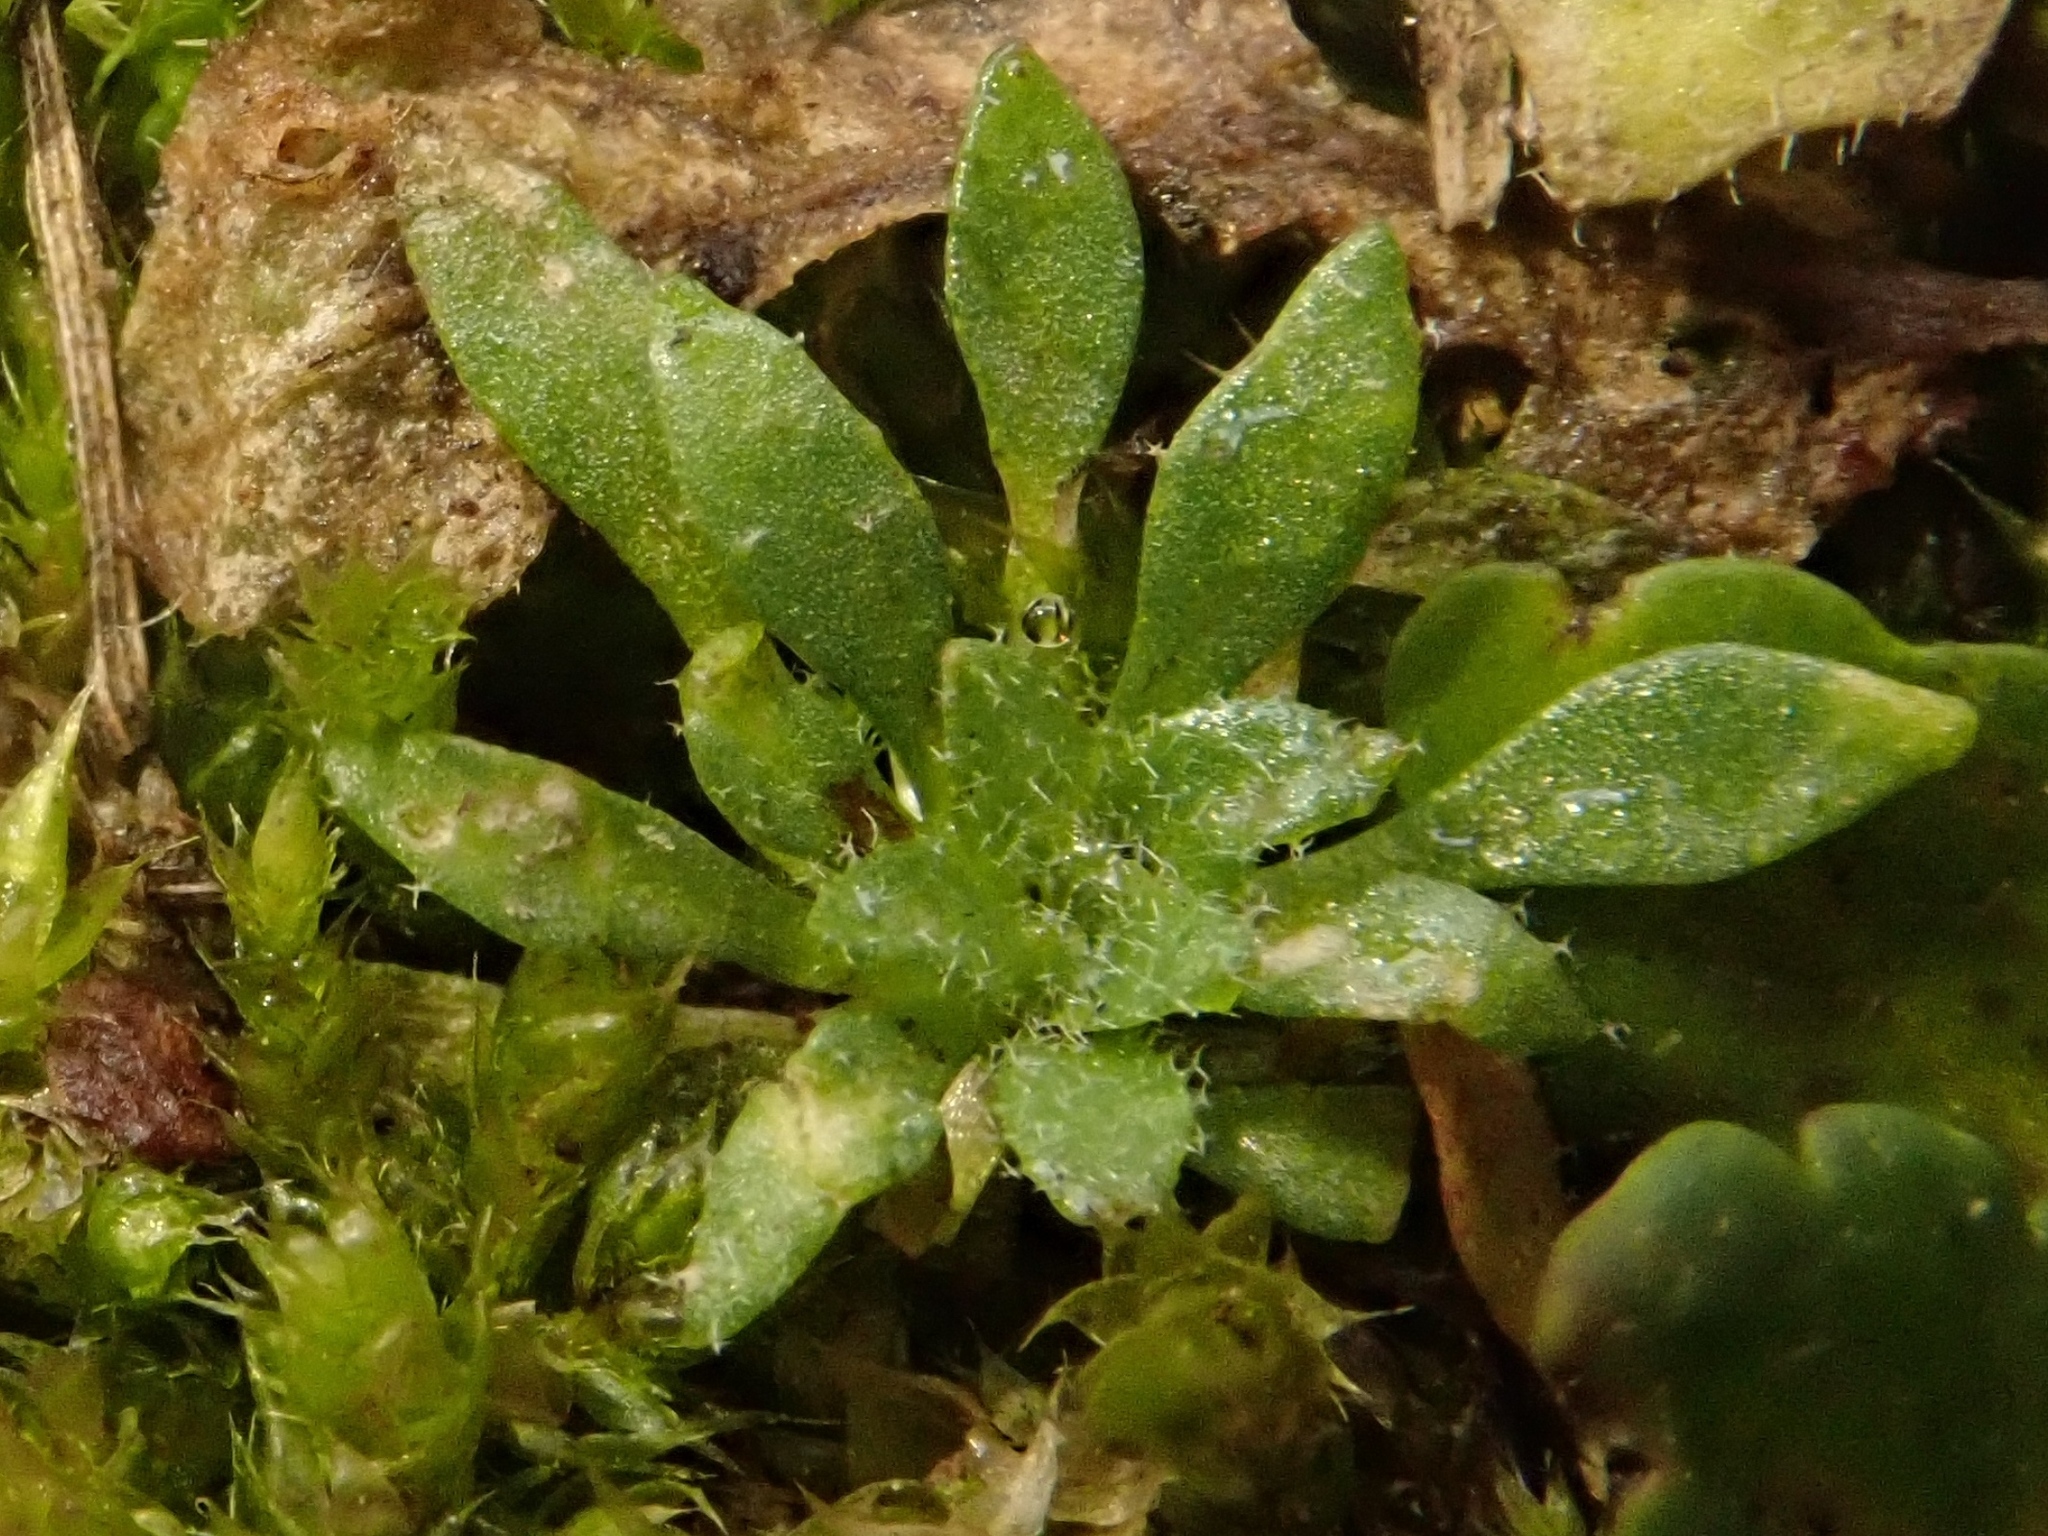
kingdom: Plantae
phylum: Tracheophyta
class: Magnoliopsida
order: Brassicales
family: Brassicaceae
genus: Draba
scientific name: Draba verna
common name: Spring draba
